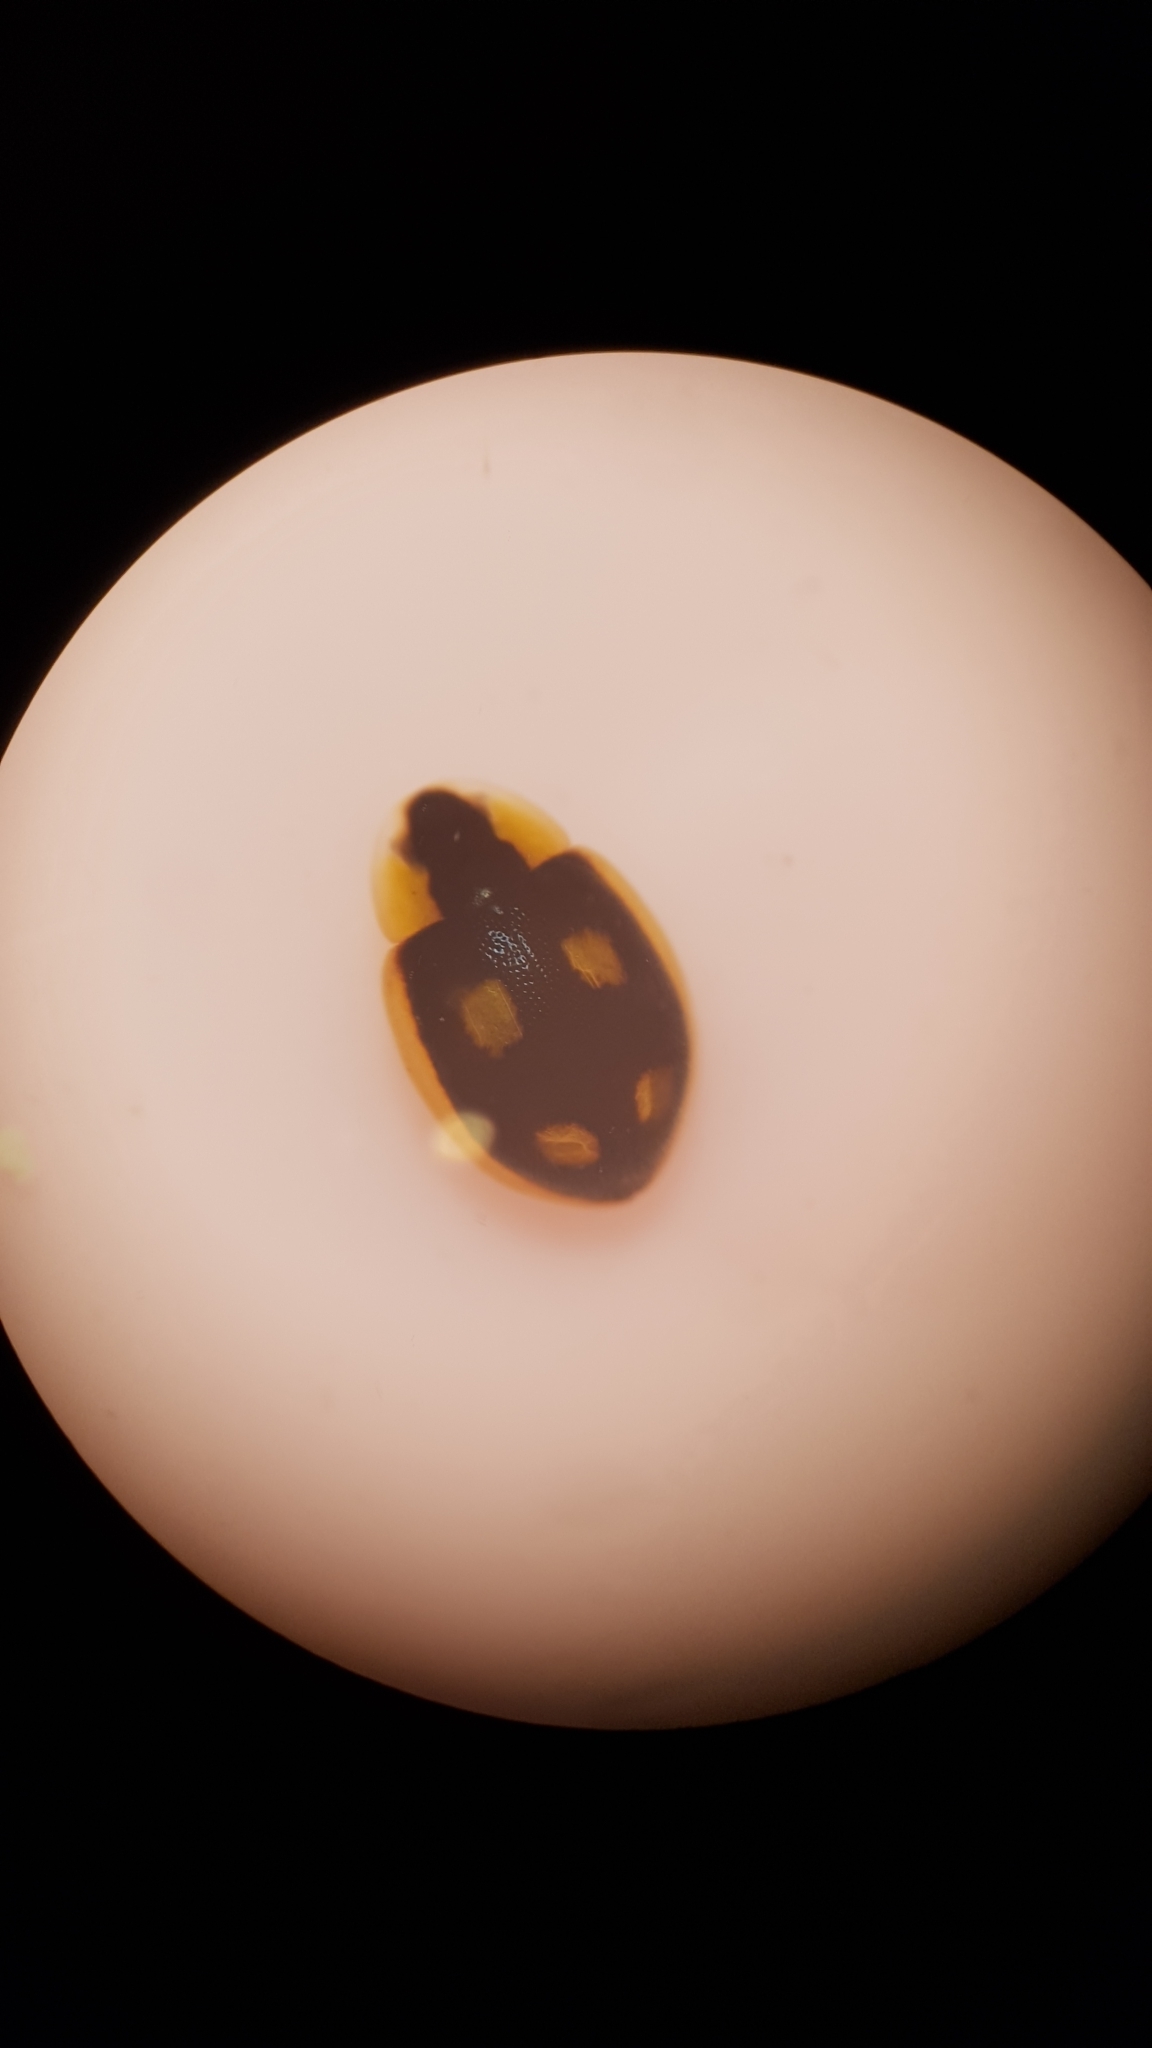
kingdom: Animalia
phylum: Arthropoda
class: Insecta
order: Coleoptera
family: Coccinellidae
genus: Hoangus
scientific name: Hoangus
